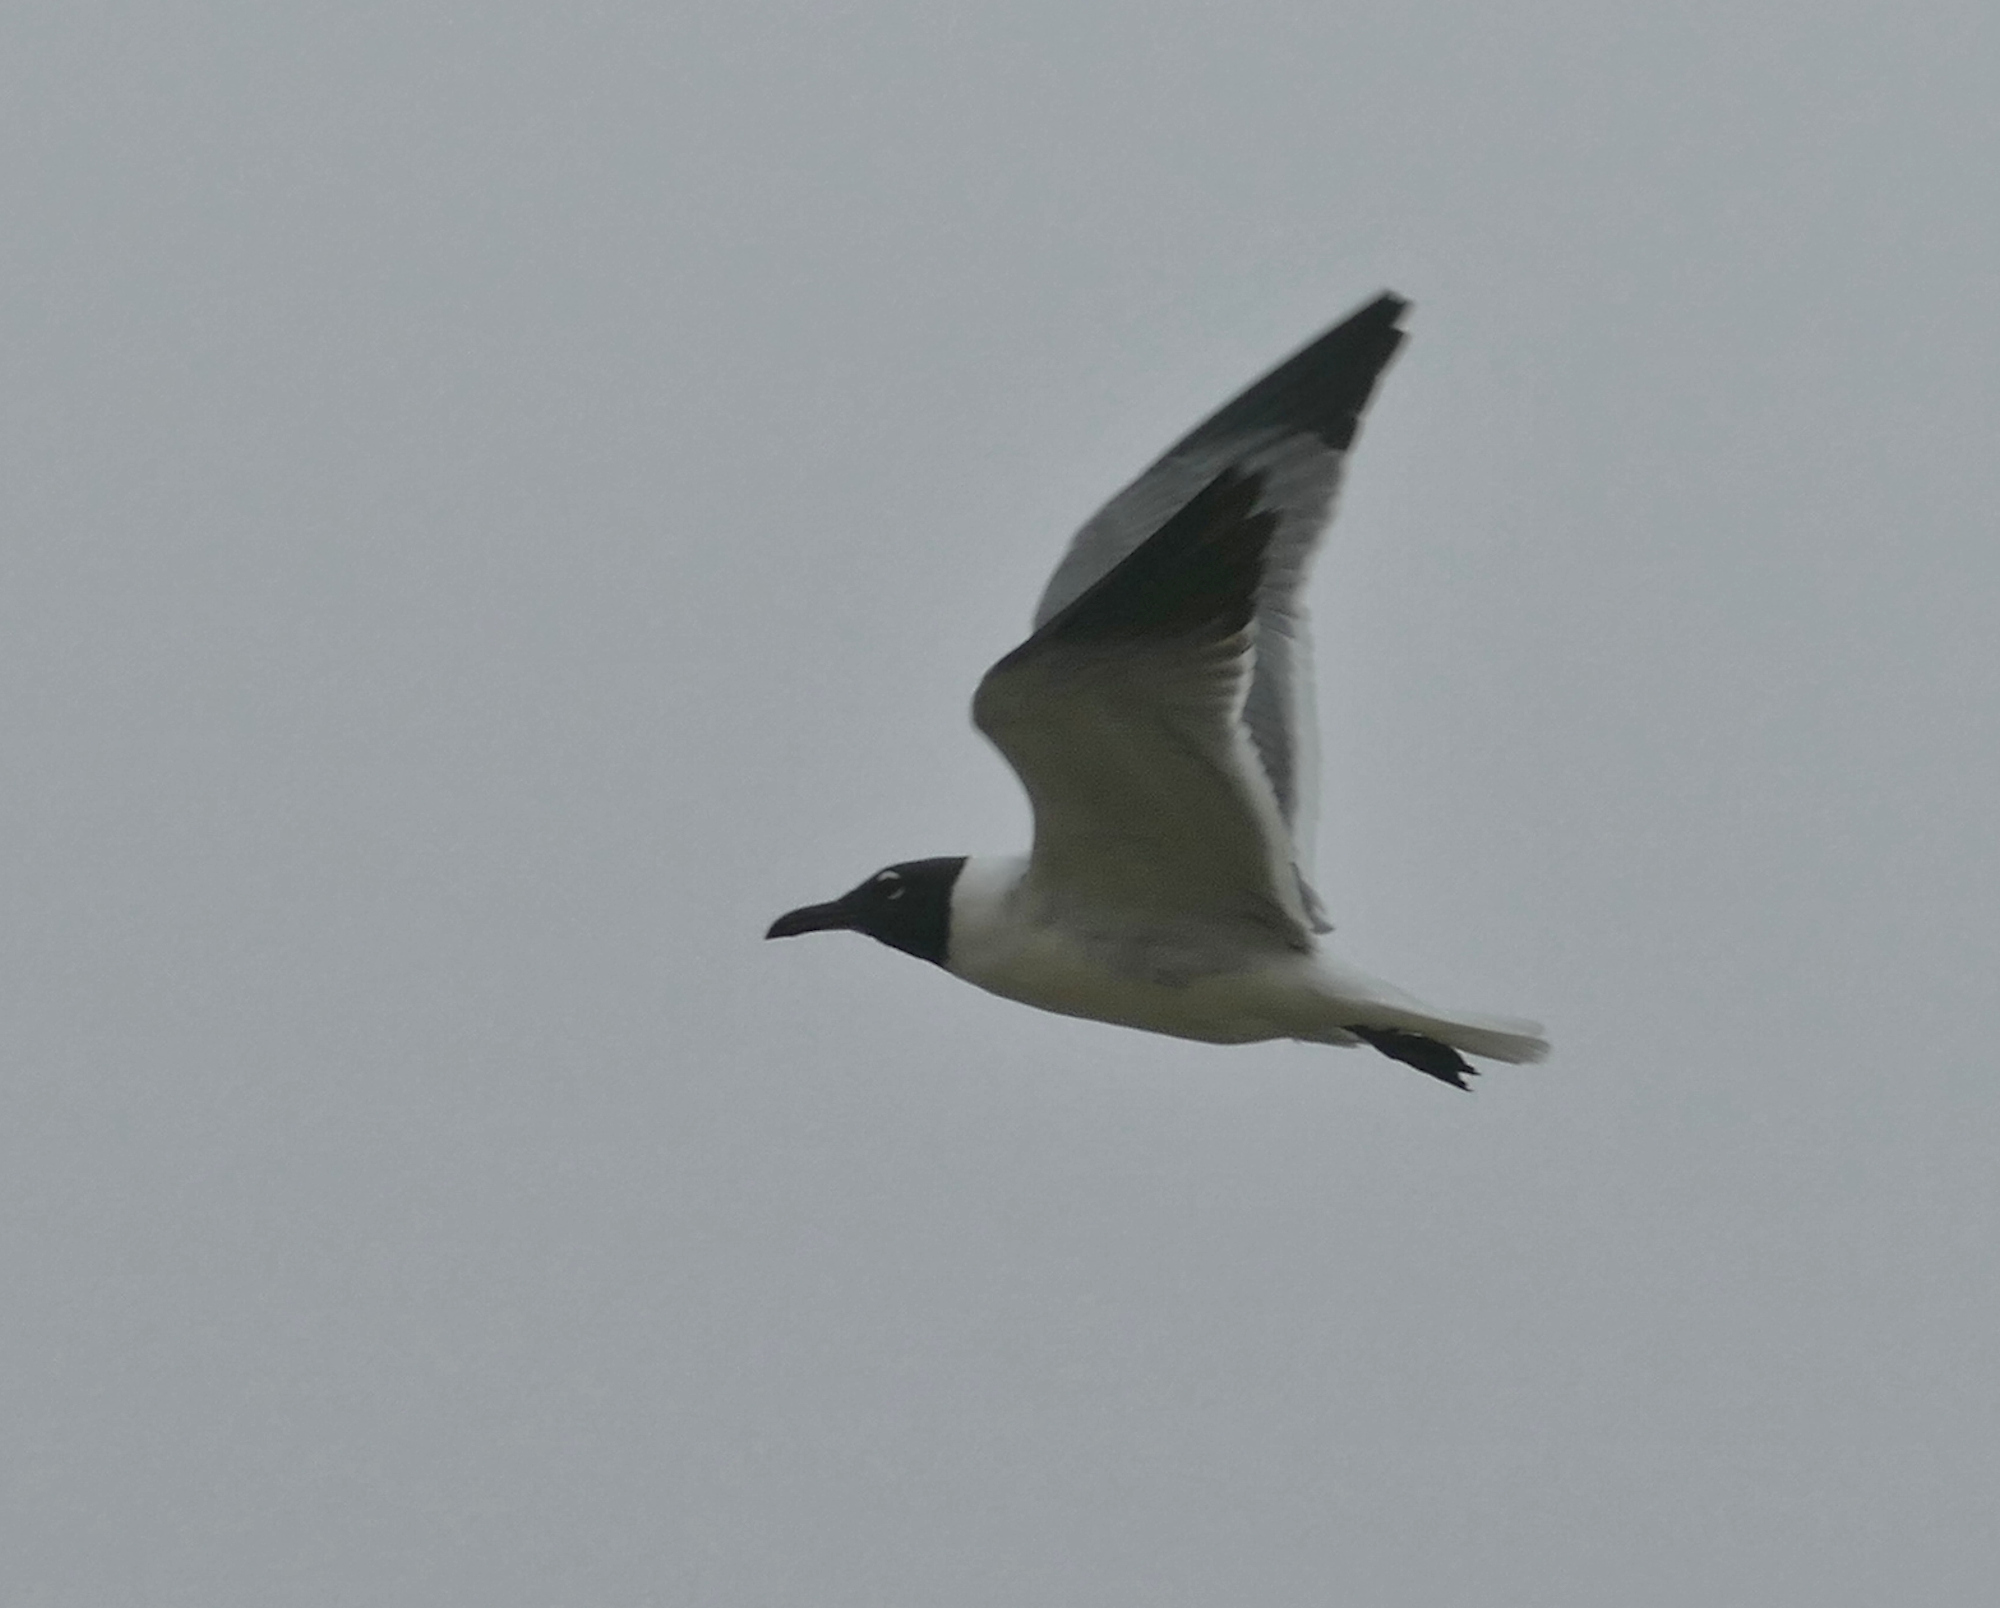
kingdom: Animalia
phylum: Chordata
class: Aves
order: Charadriiformes
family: Laridae
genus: Leucophaeus
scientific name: Leucophaeus atricilla
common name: Laughing gull
